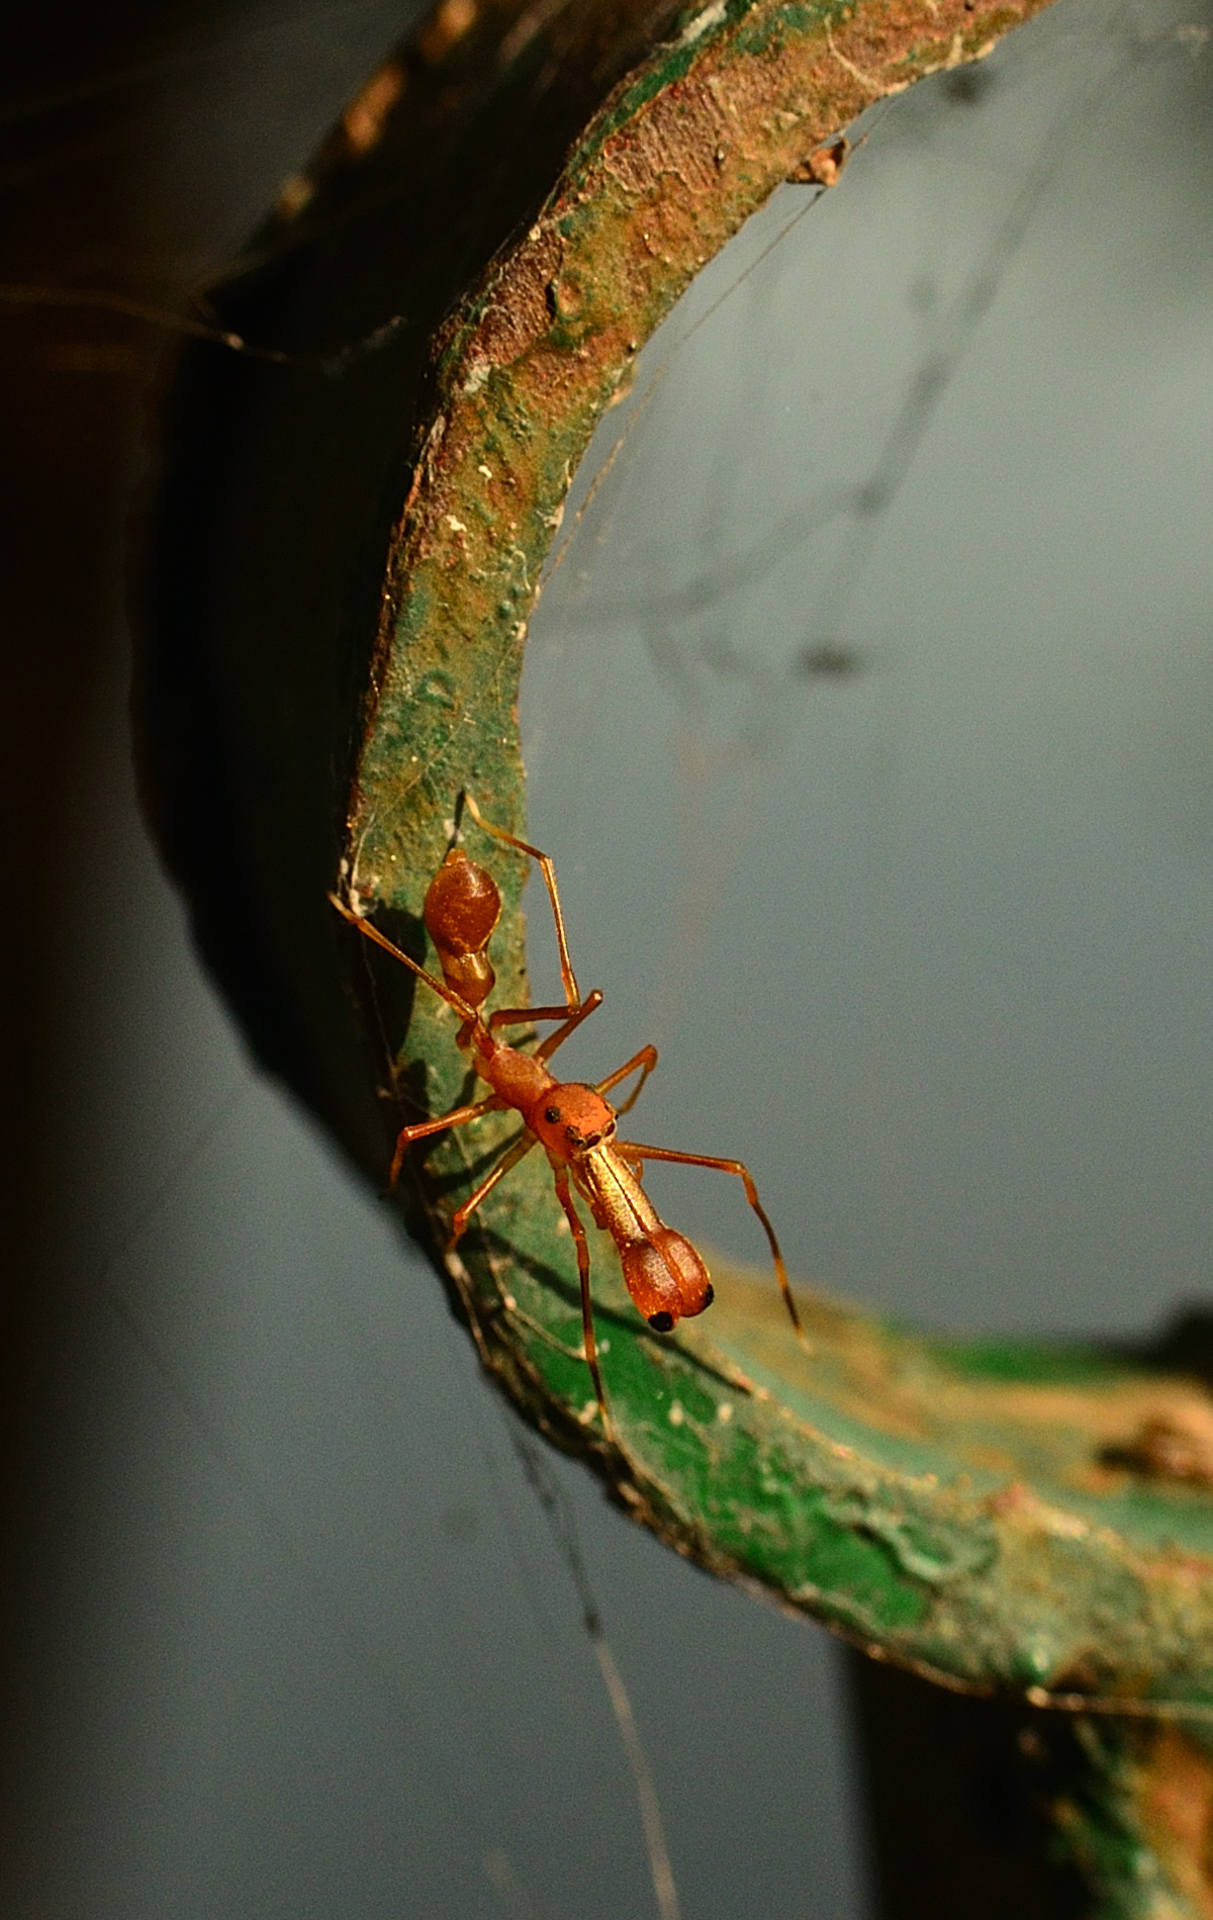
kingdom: Animalia
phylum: Arthropoda
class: Arachnida
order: Araneae
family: Salticidae
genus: Myrmaplata
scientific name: Myrmaplata plataleoides
